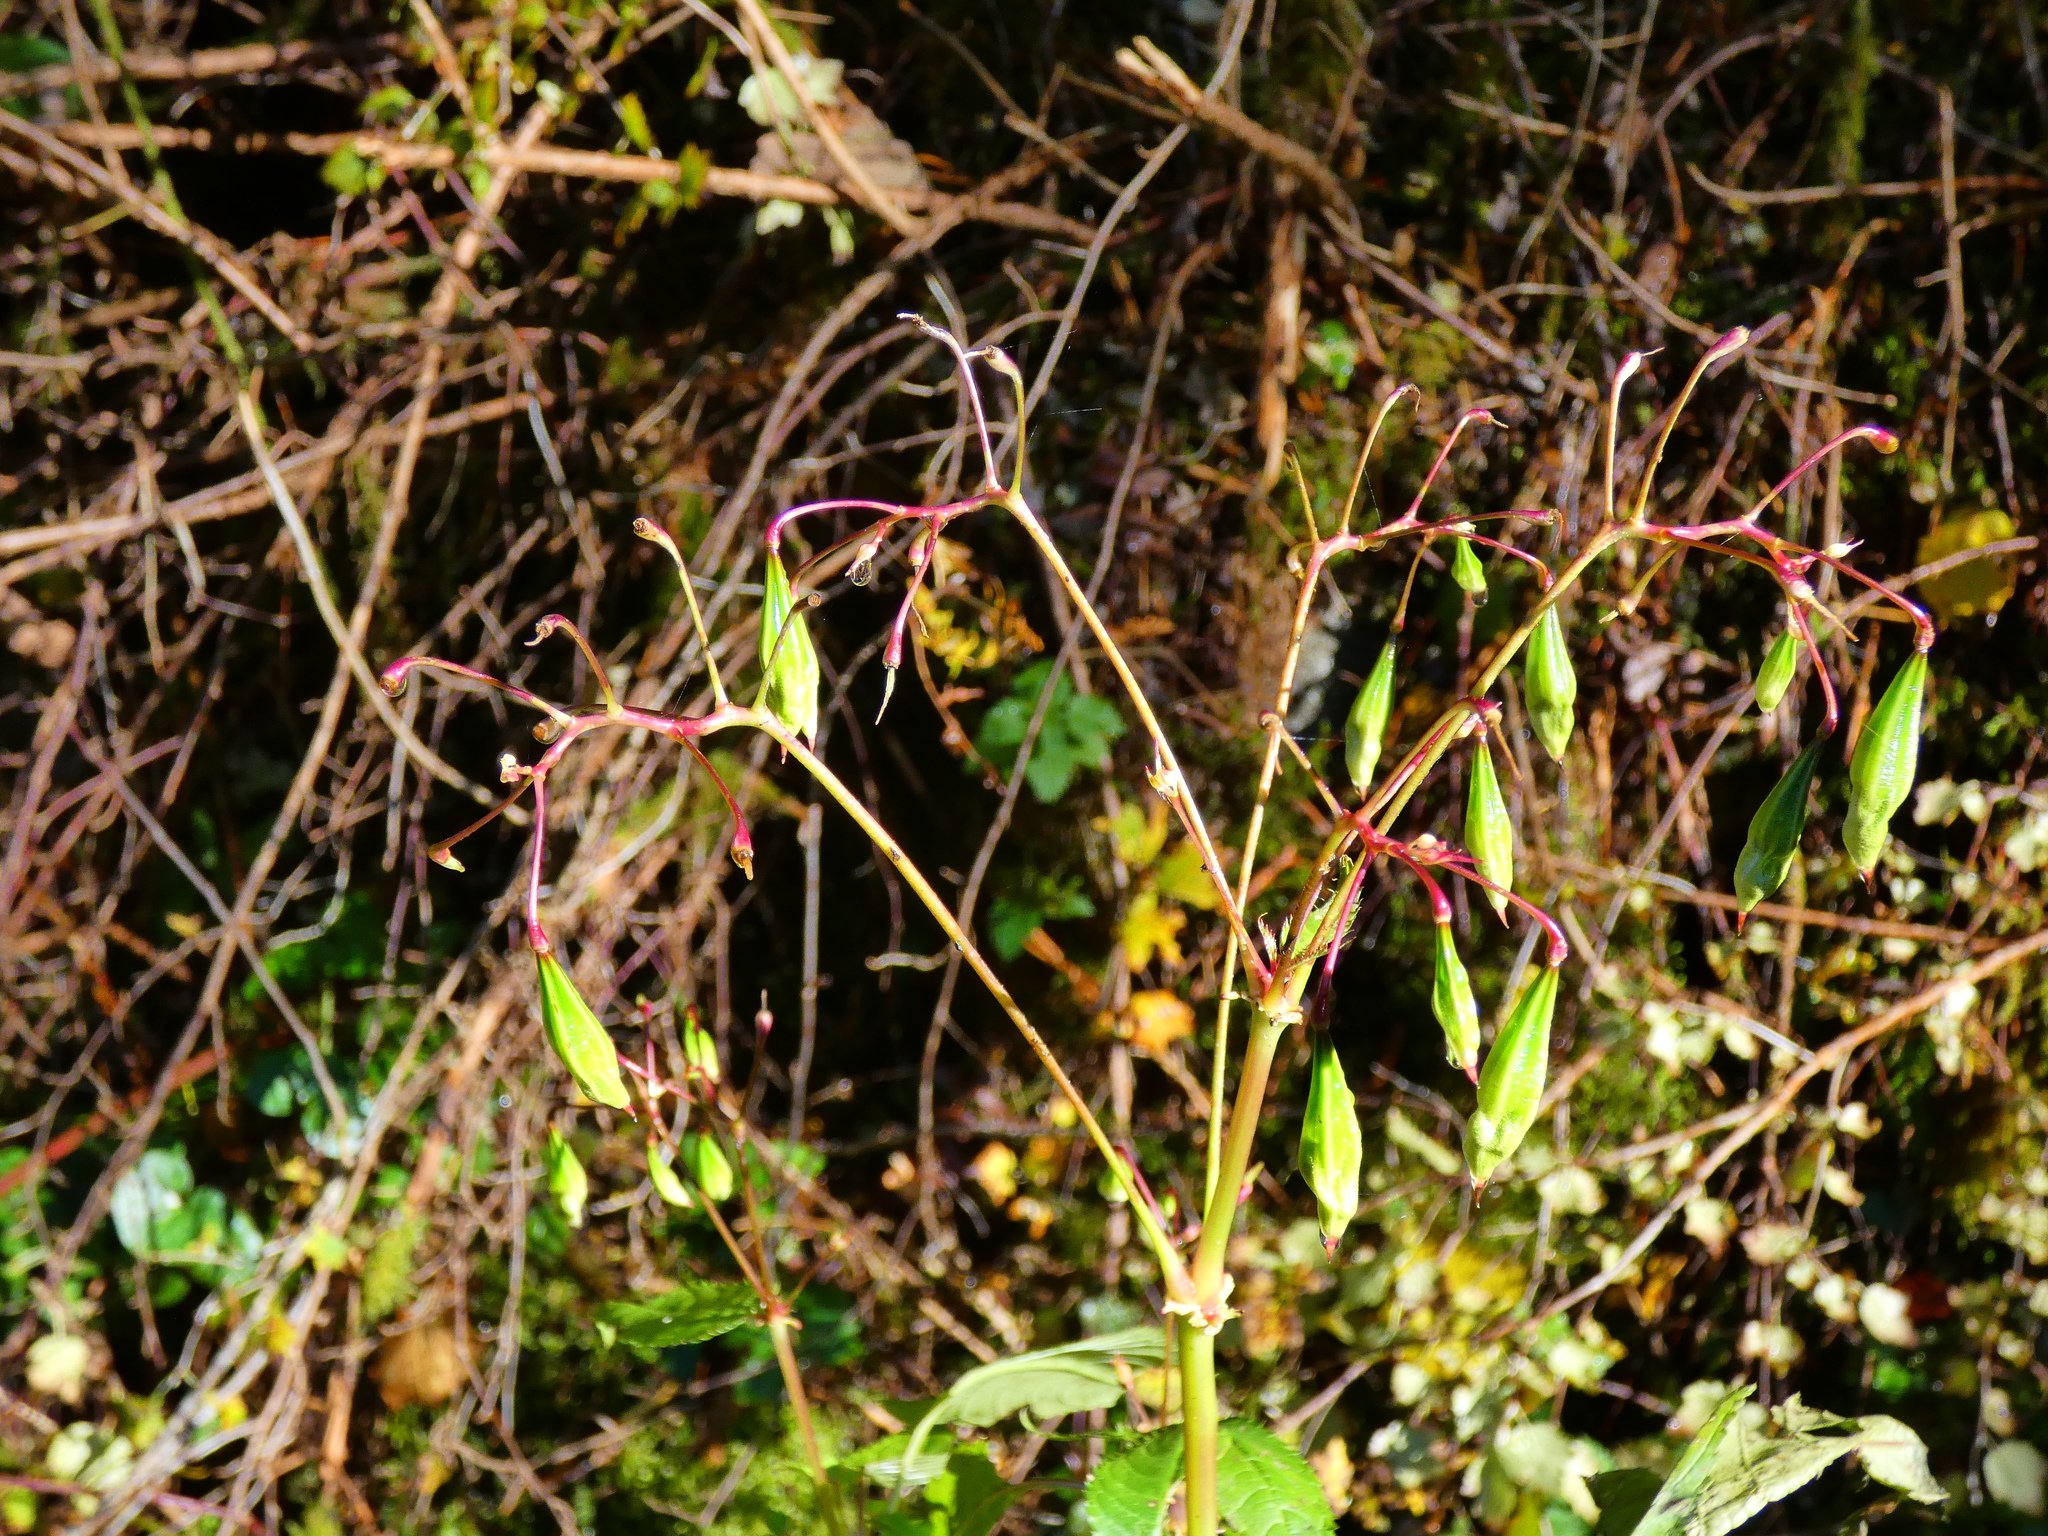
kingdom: Plantae
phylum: Tracheophyta
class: Magnoliopsida
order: Ericales
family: Balsaminaceae
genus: Impatiens
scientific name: Impatiens glandulifera
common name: Himalayan balsam
